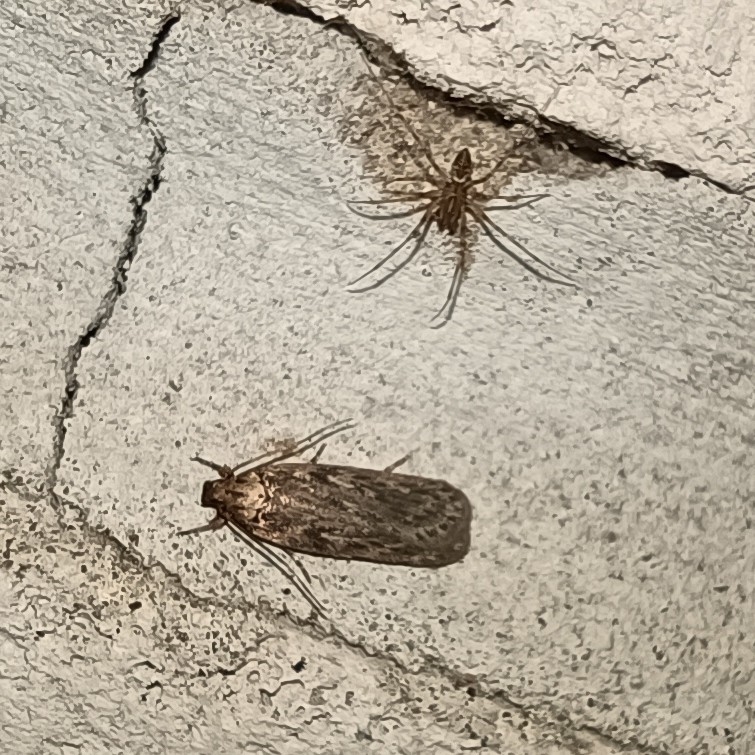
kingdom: Animalia
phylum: Arthropoda
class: Insecta
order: Lepidoptera
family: Depressariidae
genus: Depressaria
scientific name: Depressaria radiella
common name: Parsnip moth
